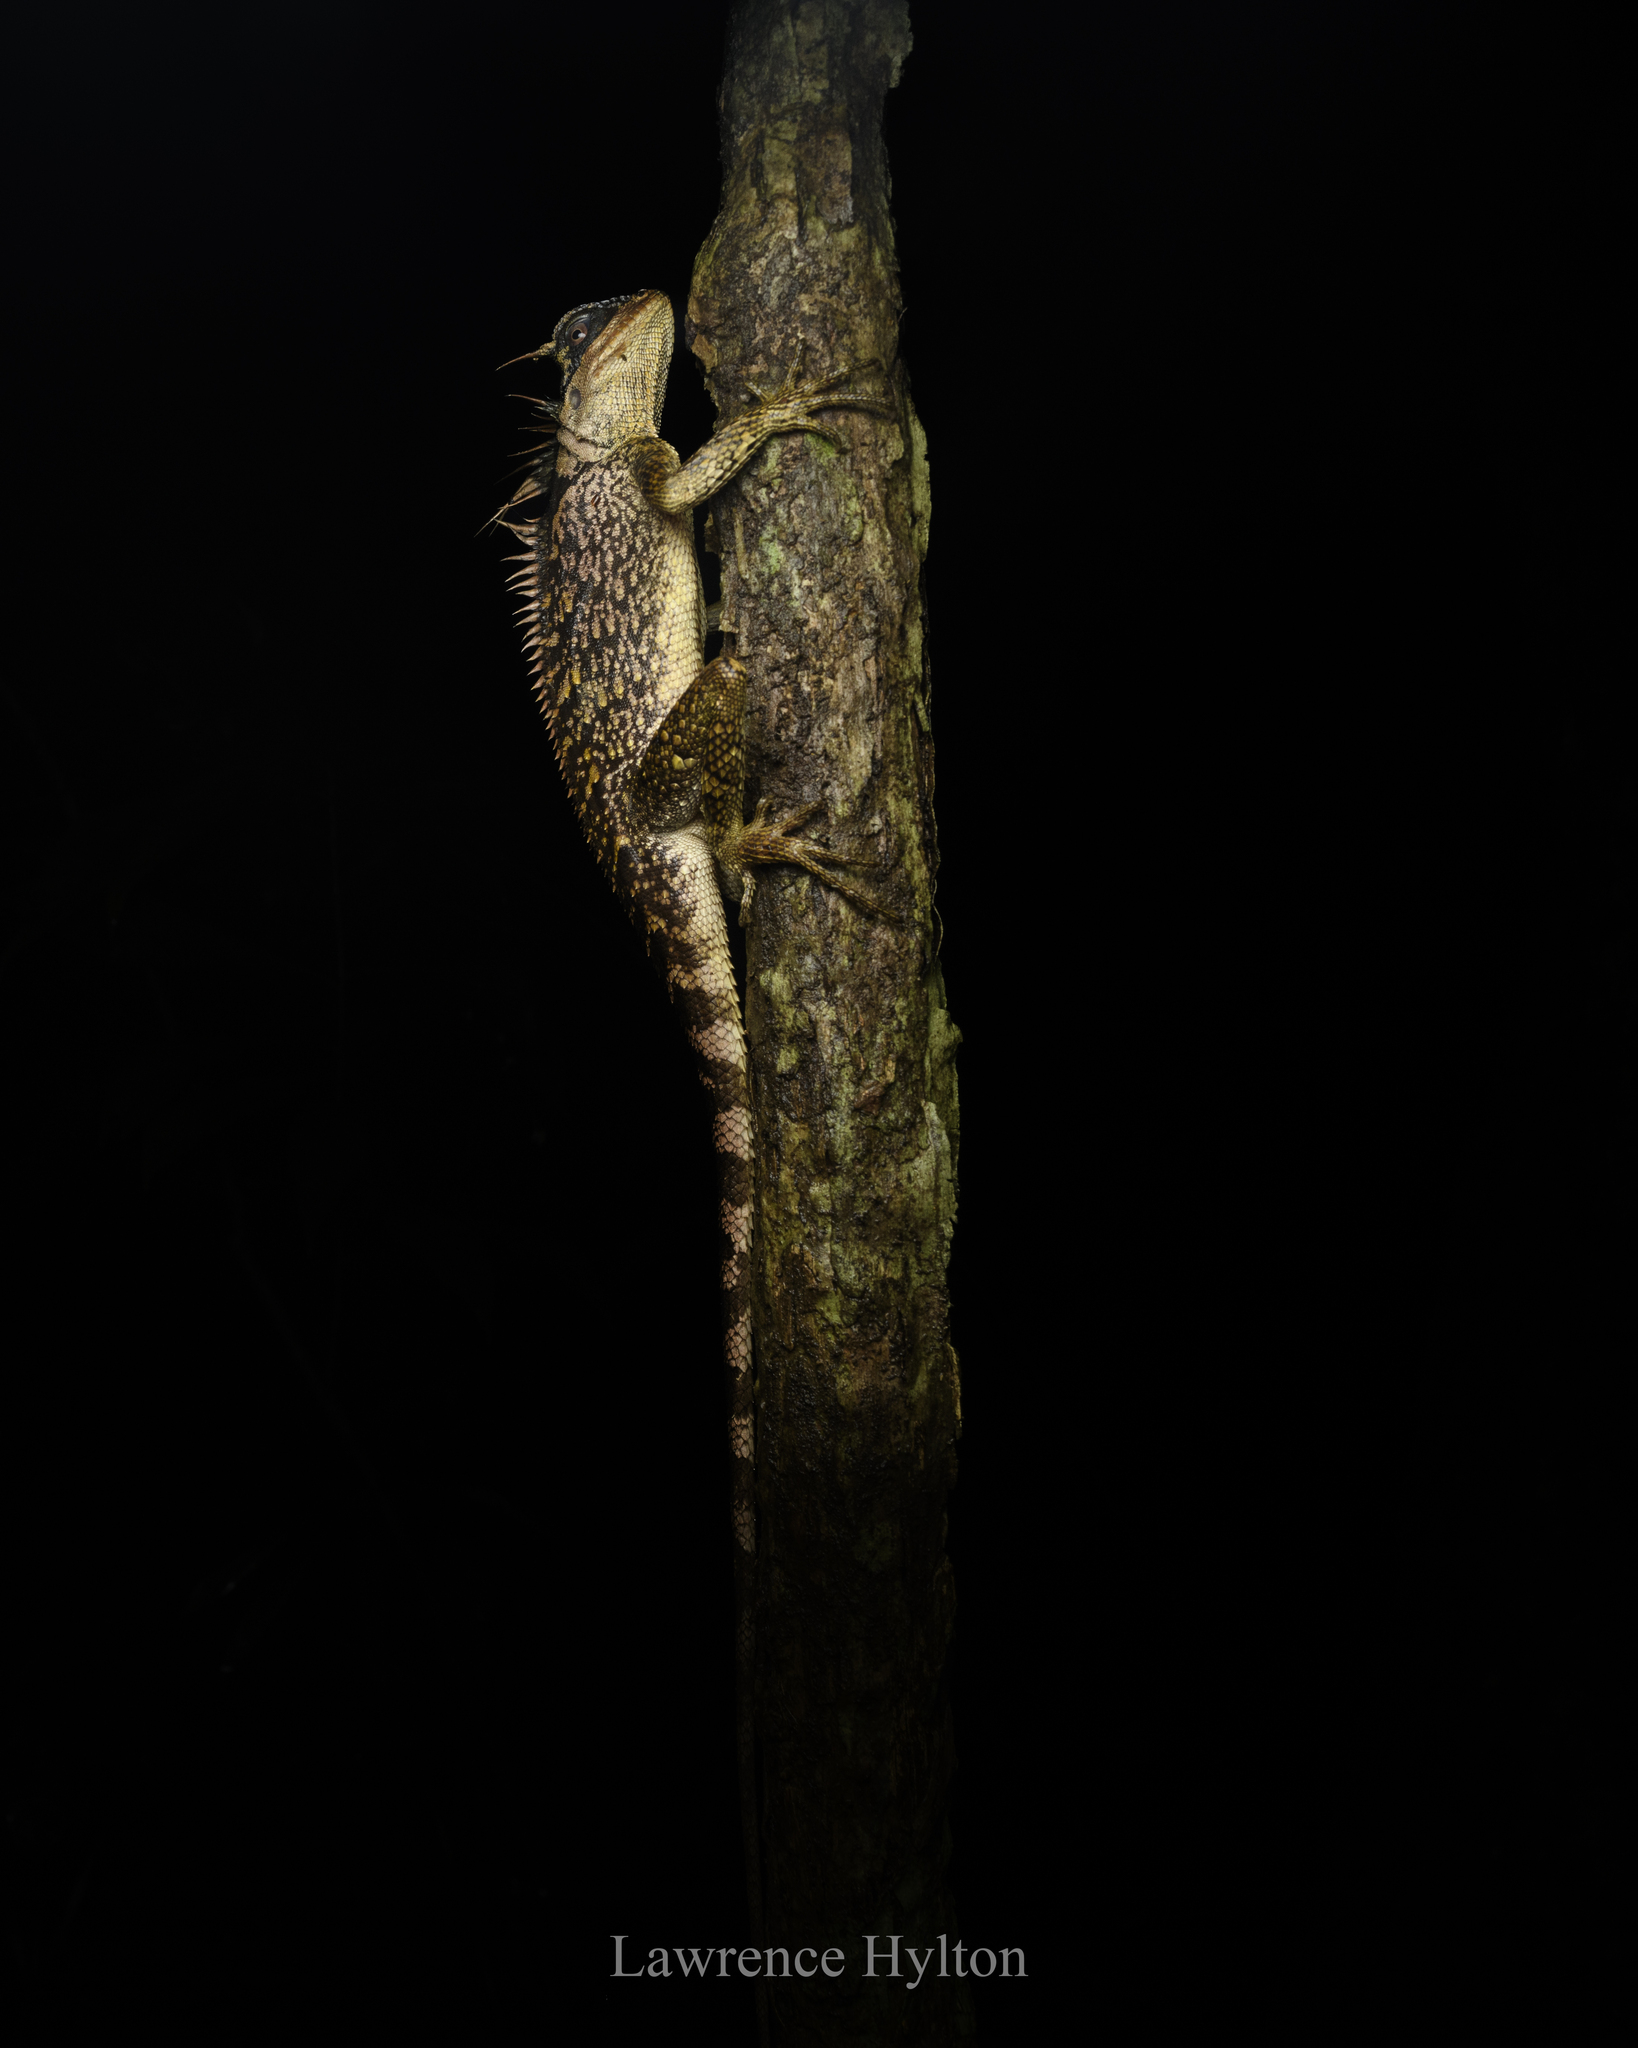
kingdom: Animalia
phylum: Chordata
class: Squamata
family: Agamidae
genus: Acanthosaura
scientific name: Acanthosaura phuketensis
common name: Phuket horned tree agamid
